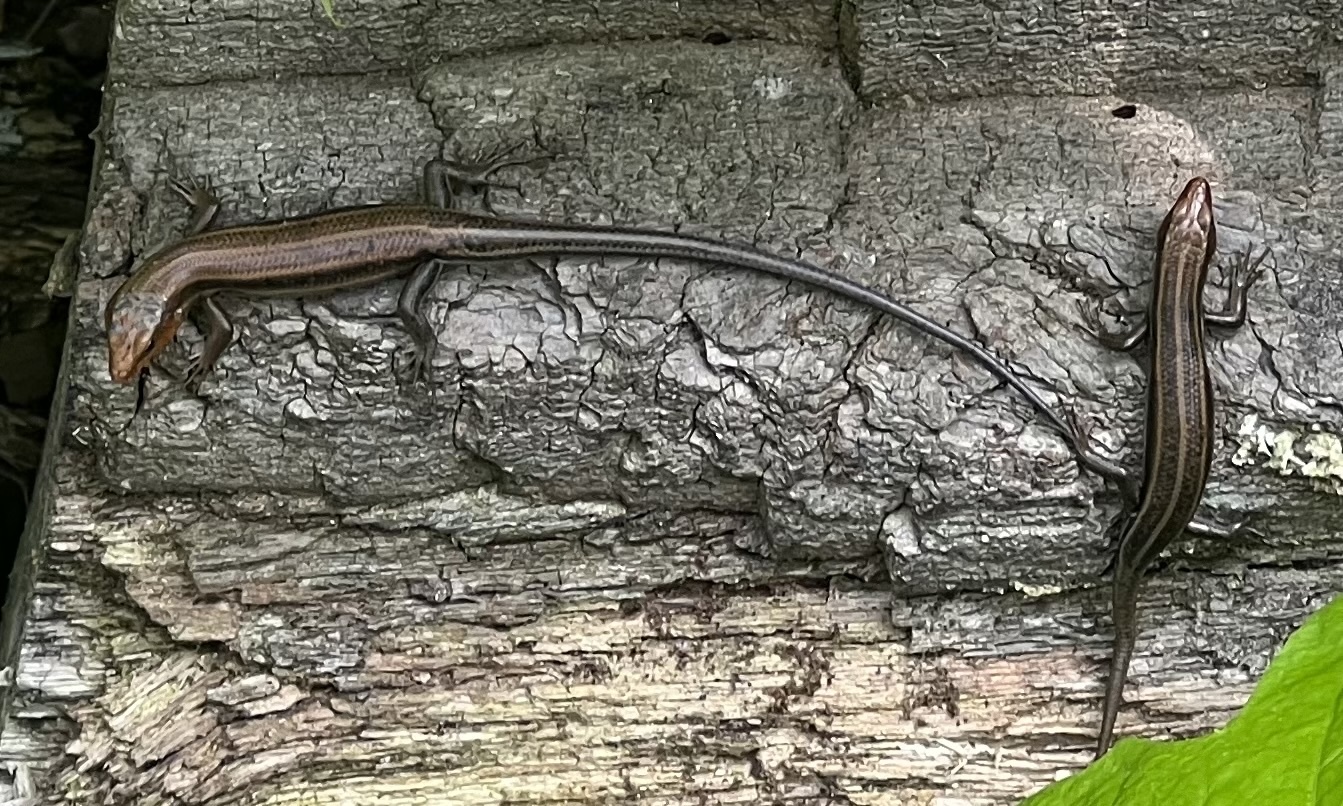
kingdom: Animalia
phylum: Chordata
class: Squamata
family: Scincidae
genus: Plestiodon
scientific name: Plestiodon fasciatus
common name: Five-lined skink
